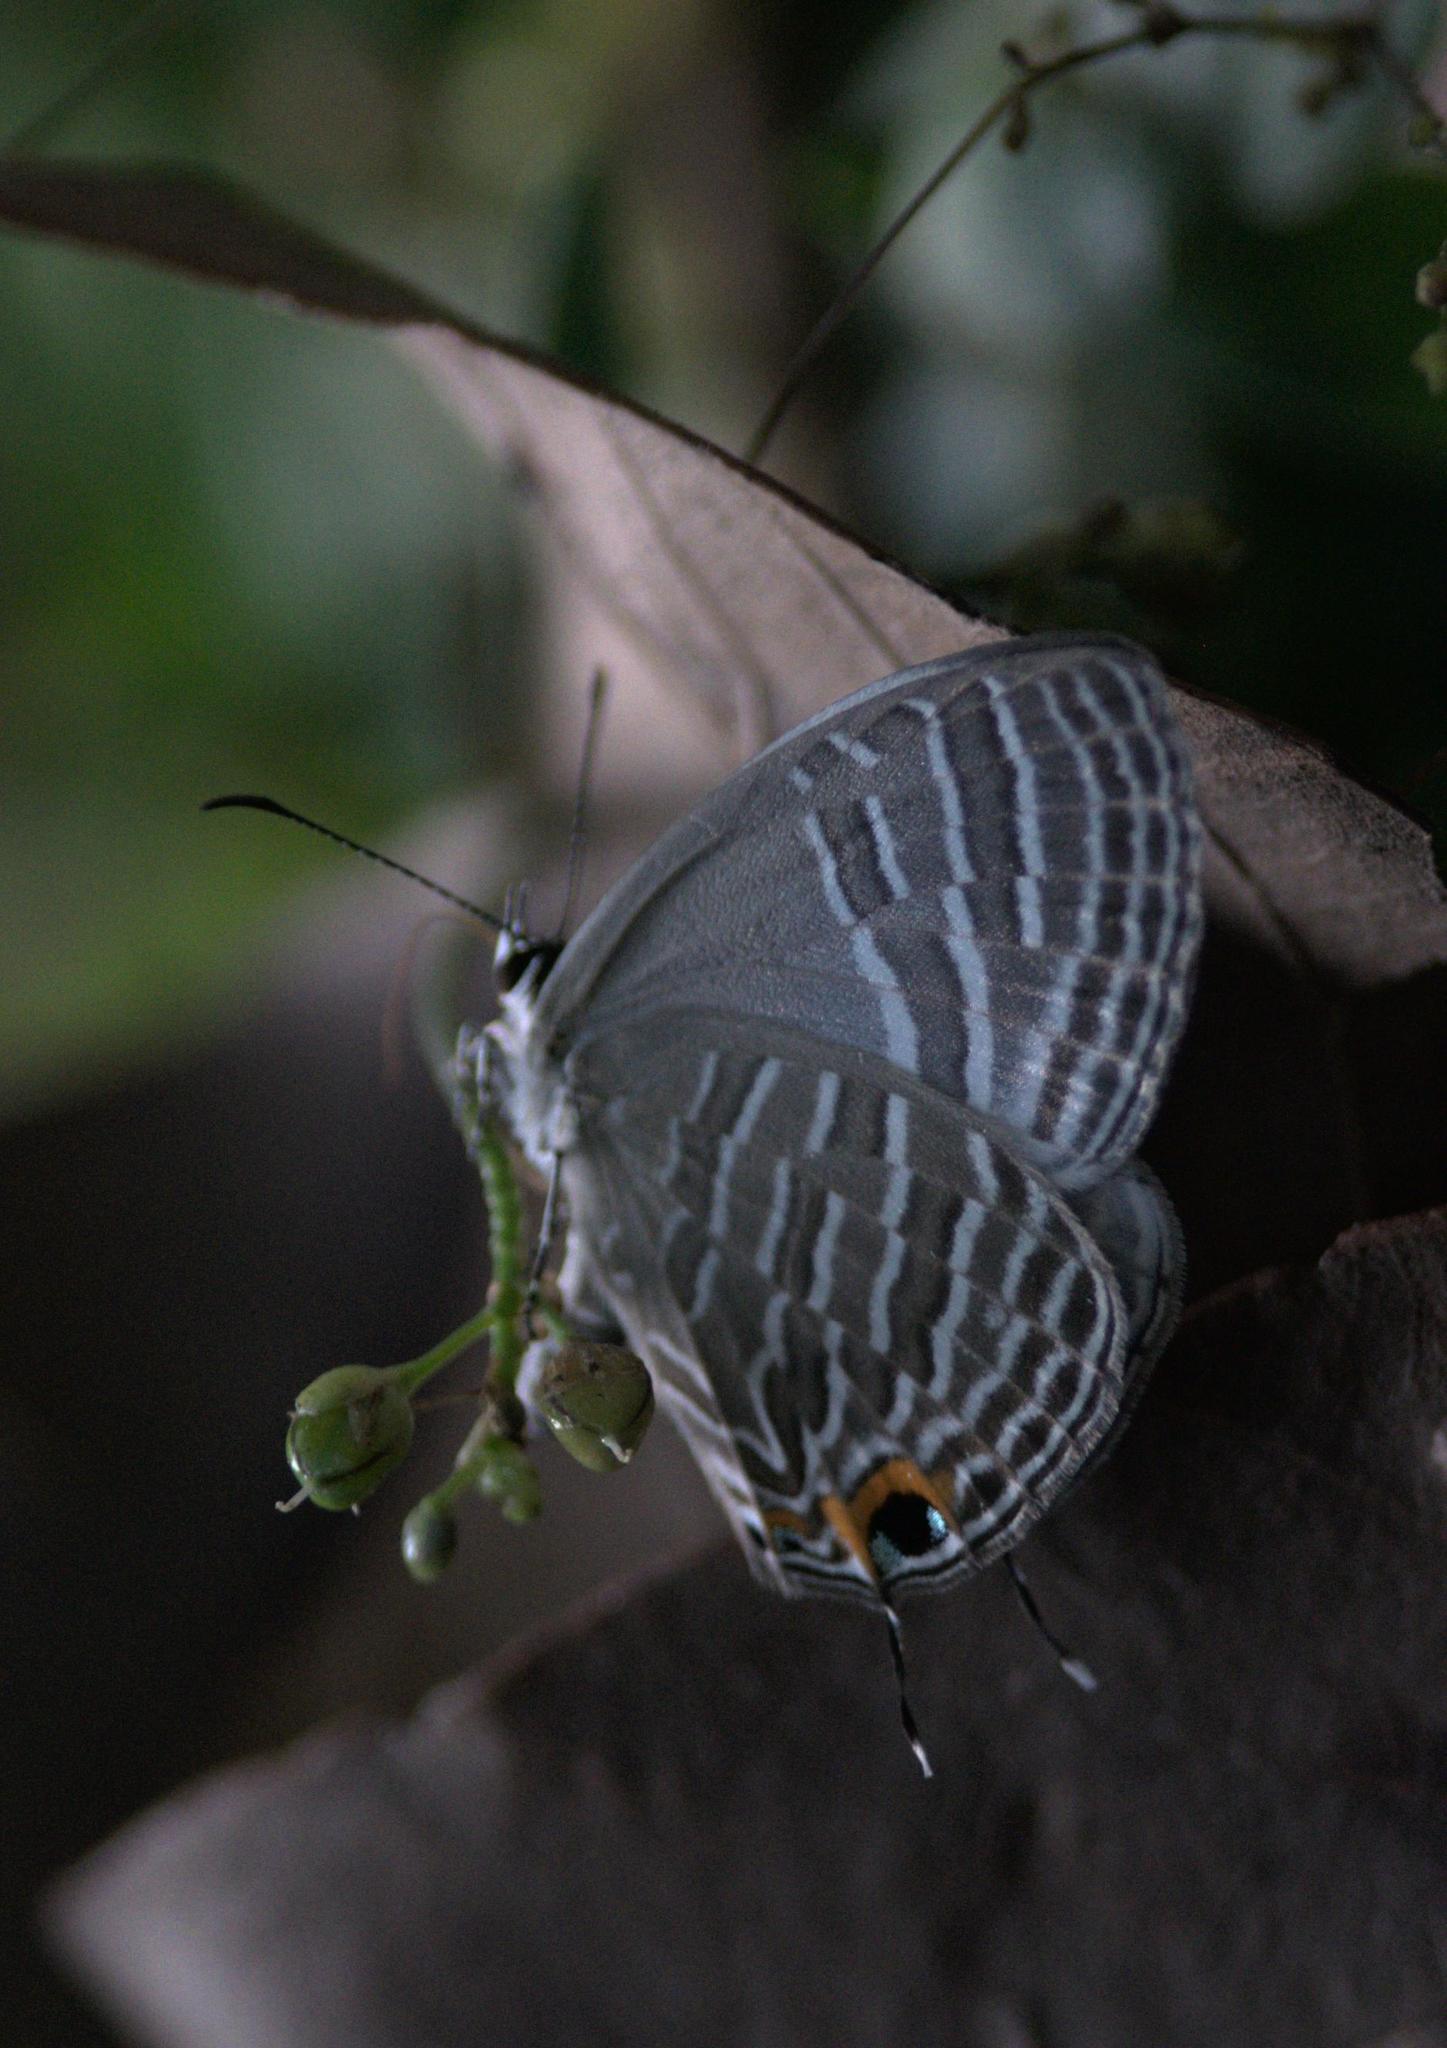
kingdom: Animalia
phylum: Arthropoda
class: Insecta
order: Lepidoptera
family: Lycaenidae
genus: Jamides
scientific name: Jamides celeno
